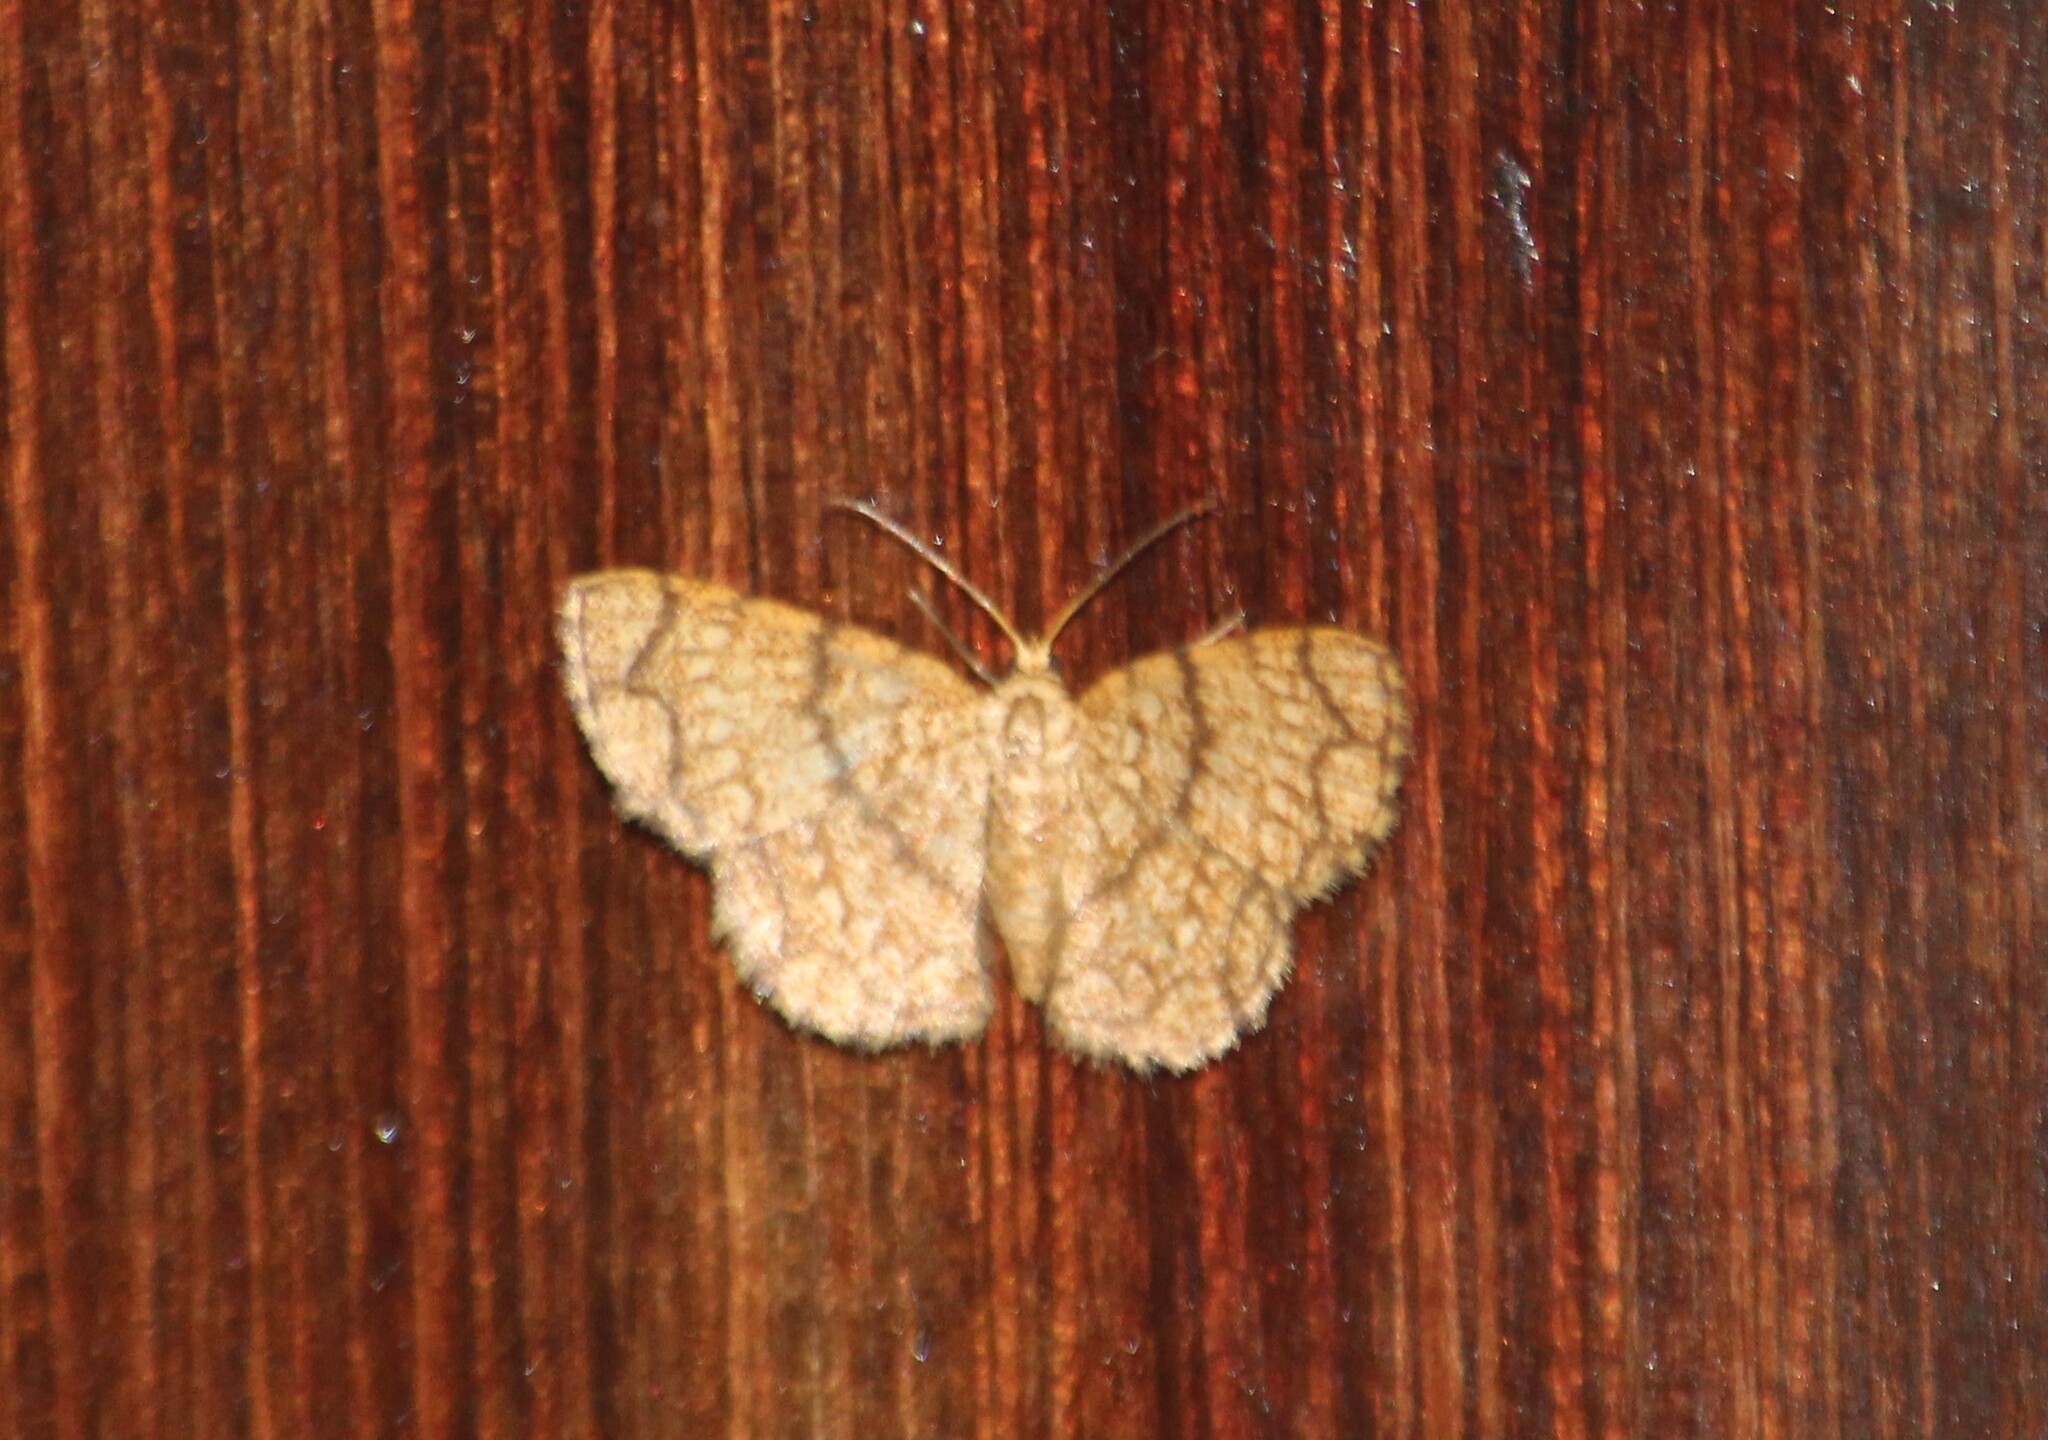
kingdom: Animalia
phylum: Arthropoda
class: Insecta
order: Lepidoptera
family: Geometridae
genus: Heterostegane
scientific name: Heterostegane tritocampsis
